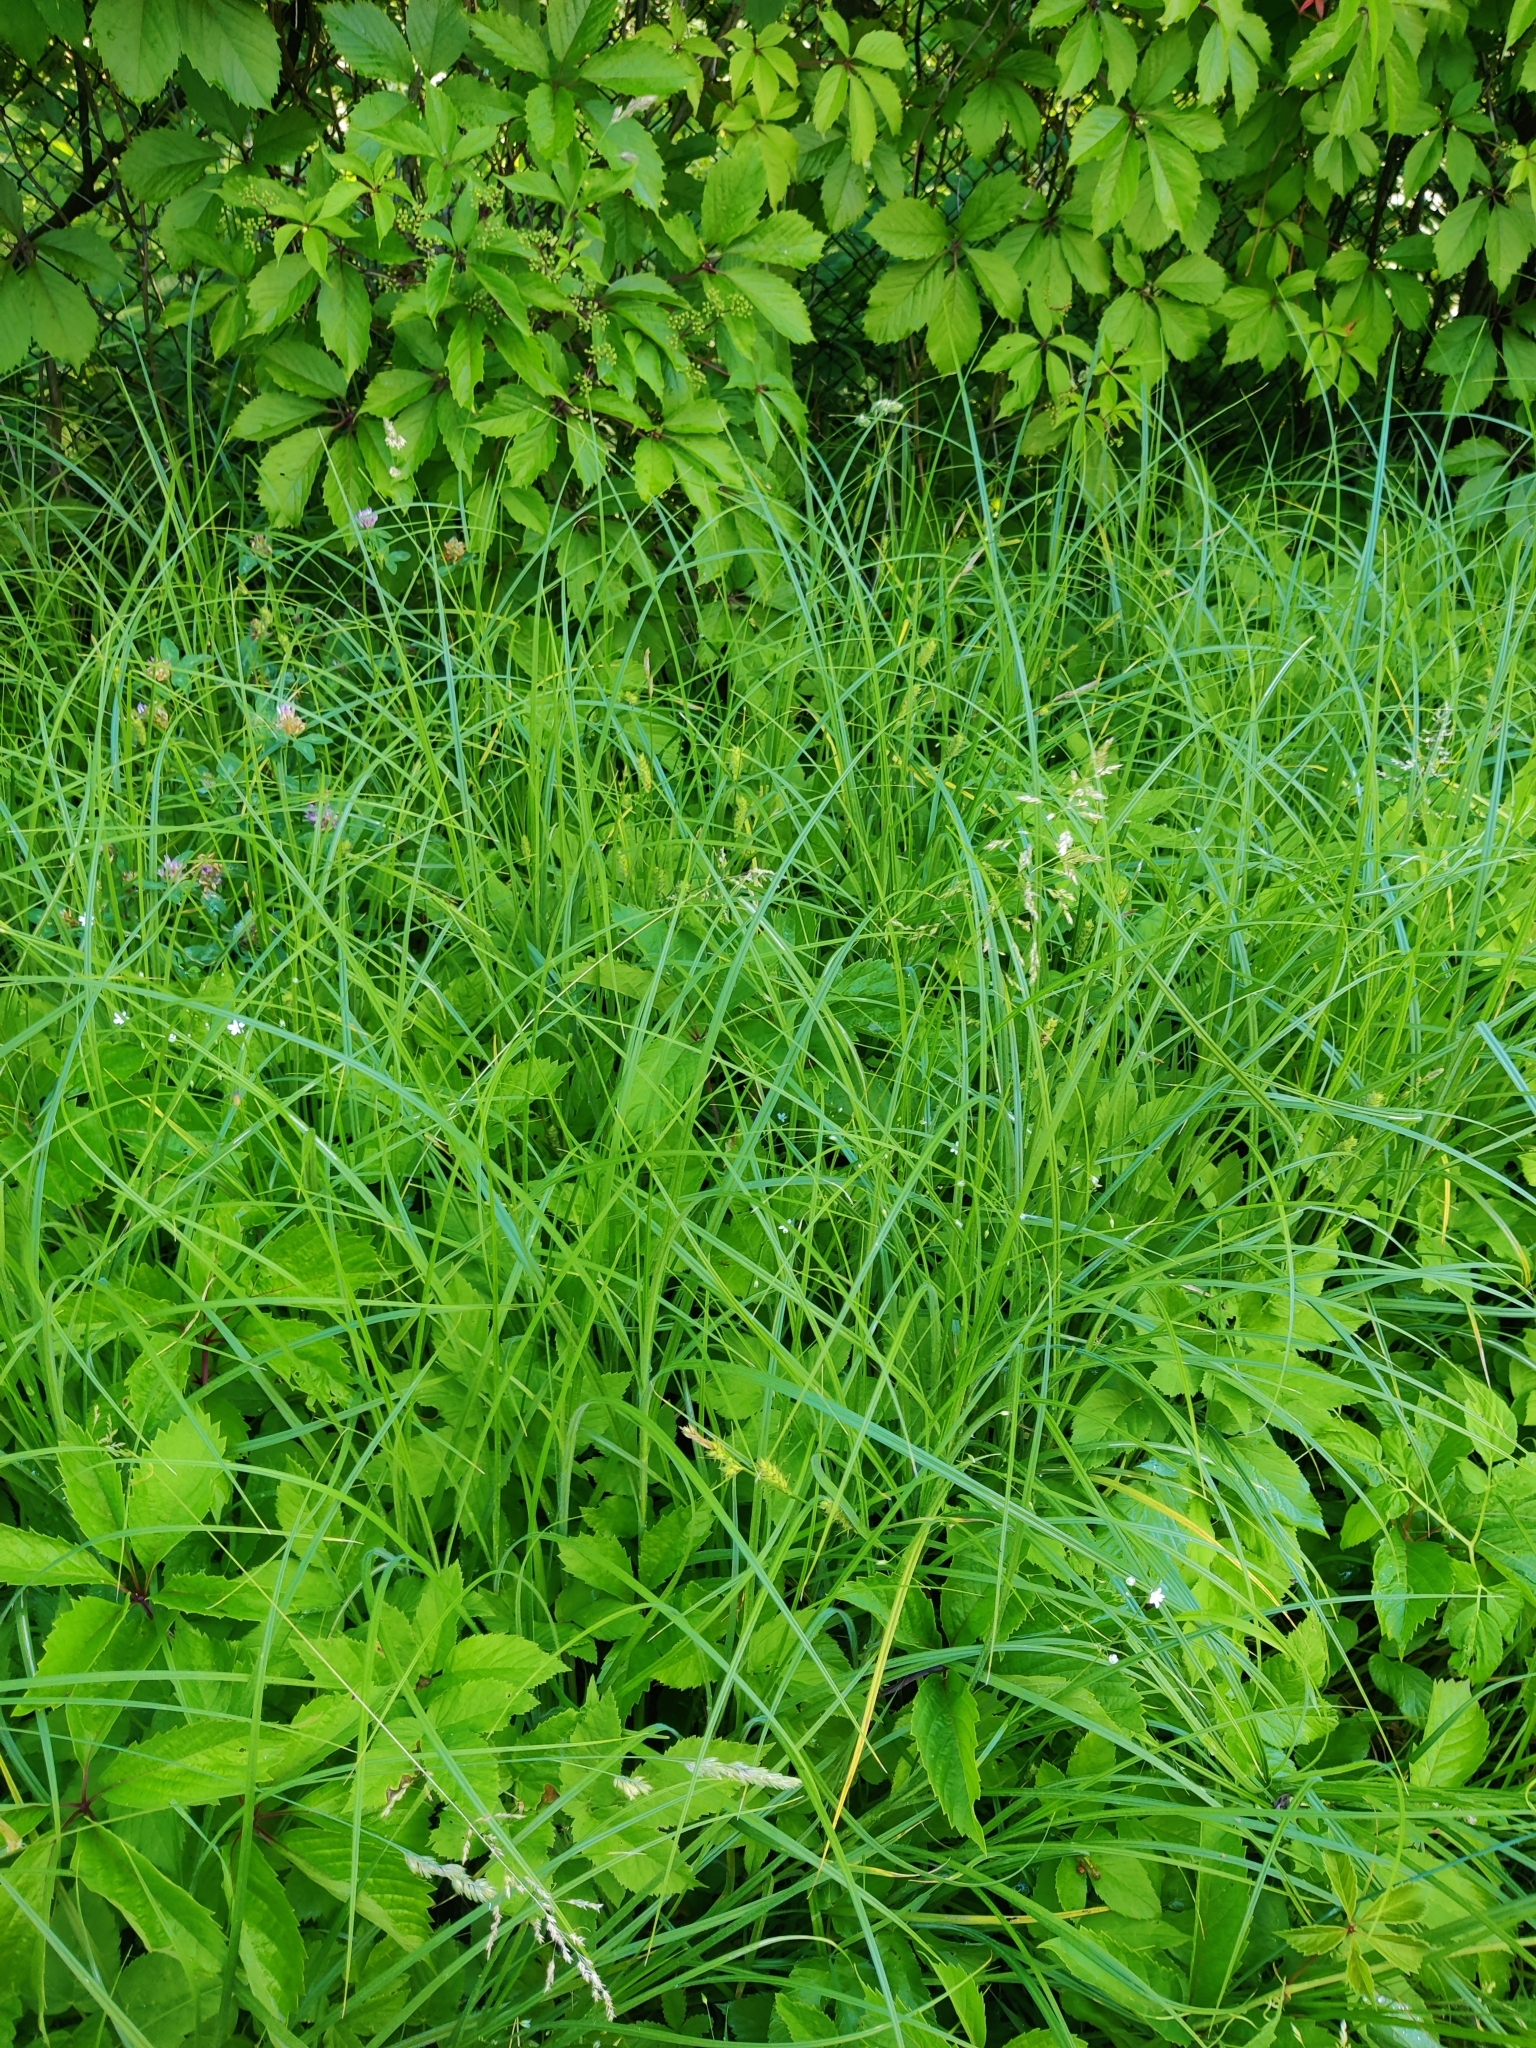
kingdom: Plantae
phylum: Tracheophyta
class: Liliopsida
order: Poales
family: Poaceae
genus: Poa
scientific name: Poa trivialis
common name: Rough bluegrass
